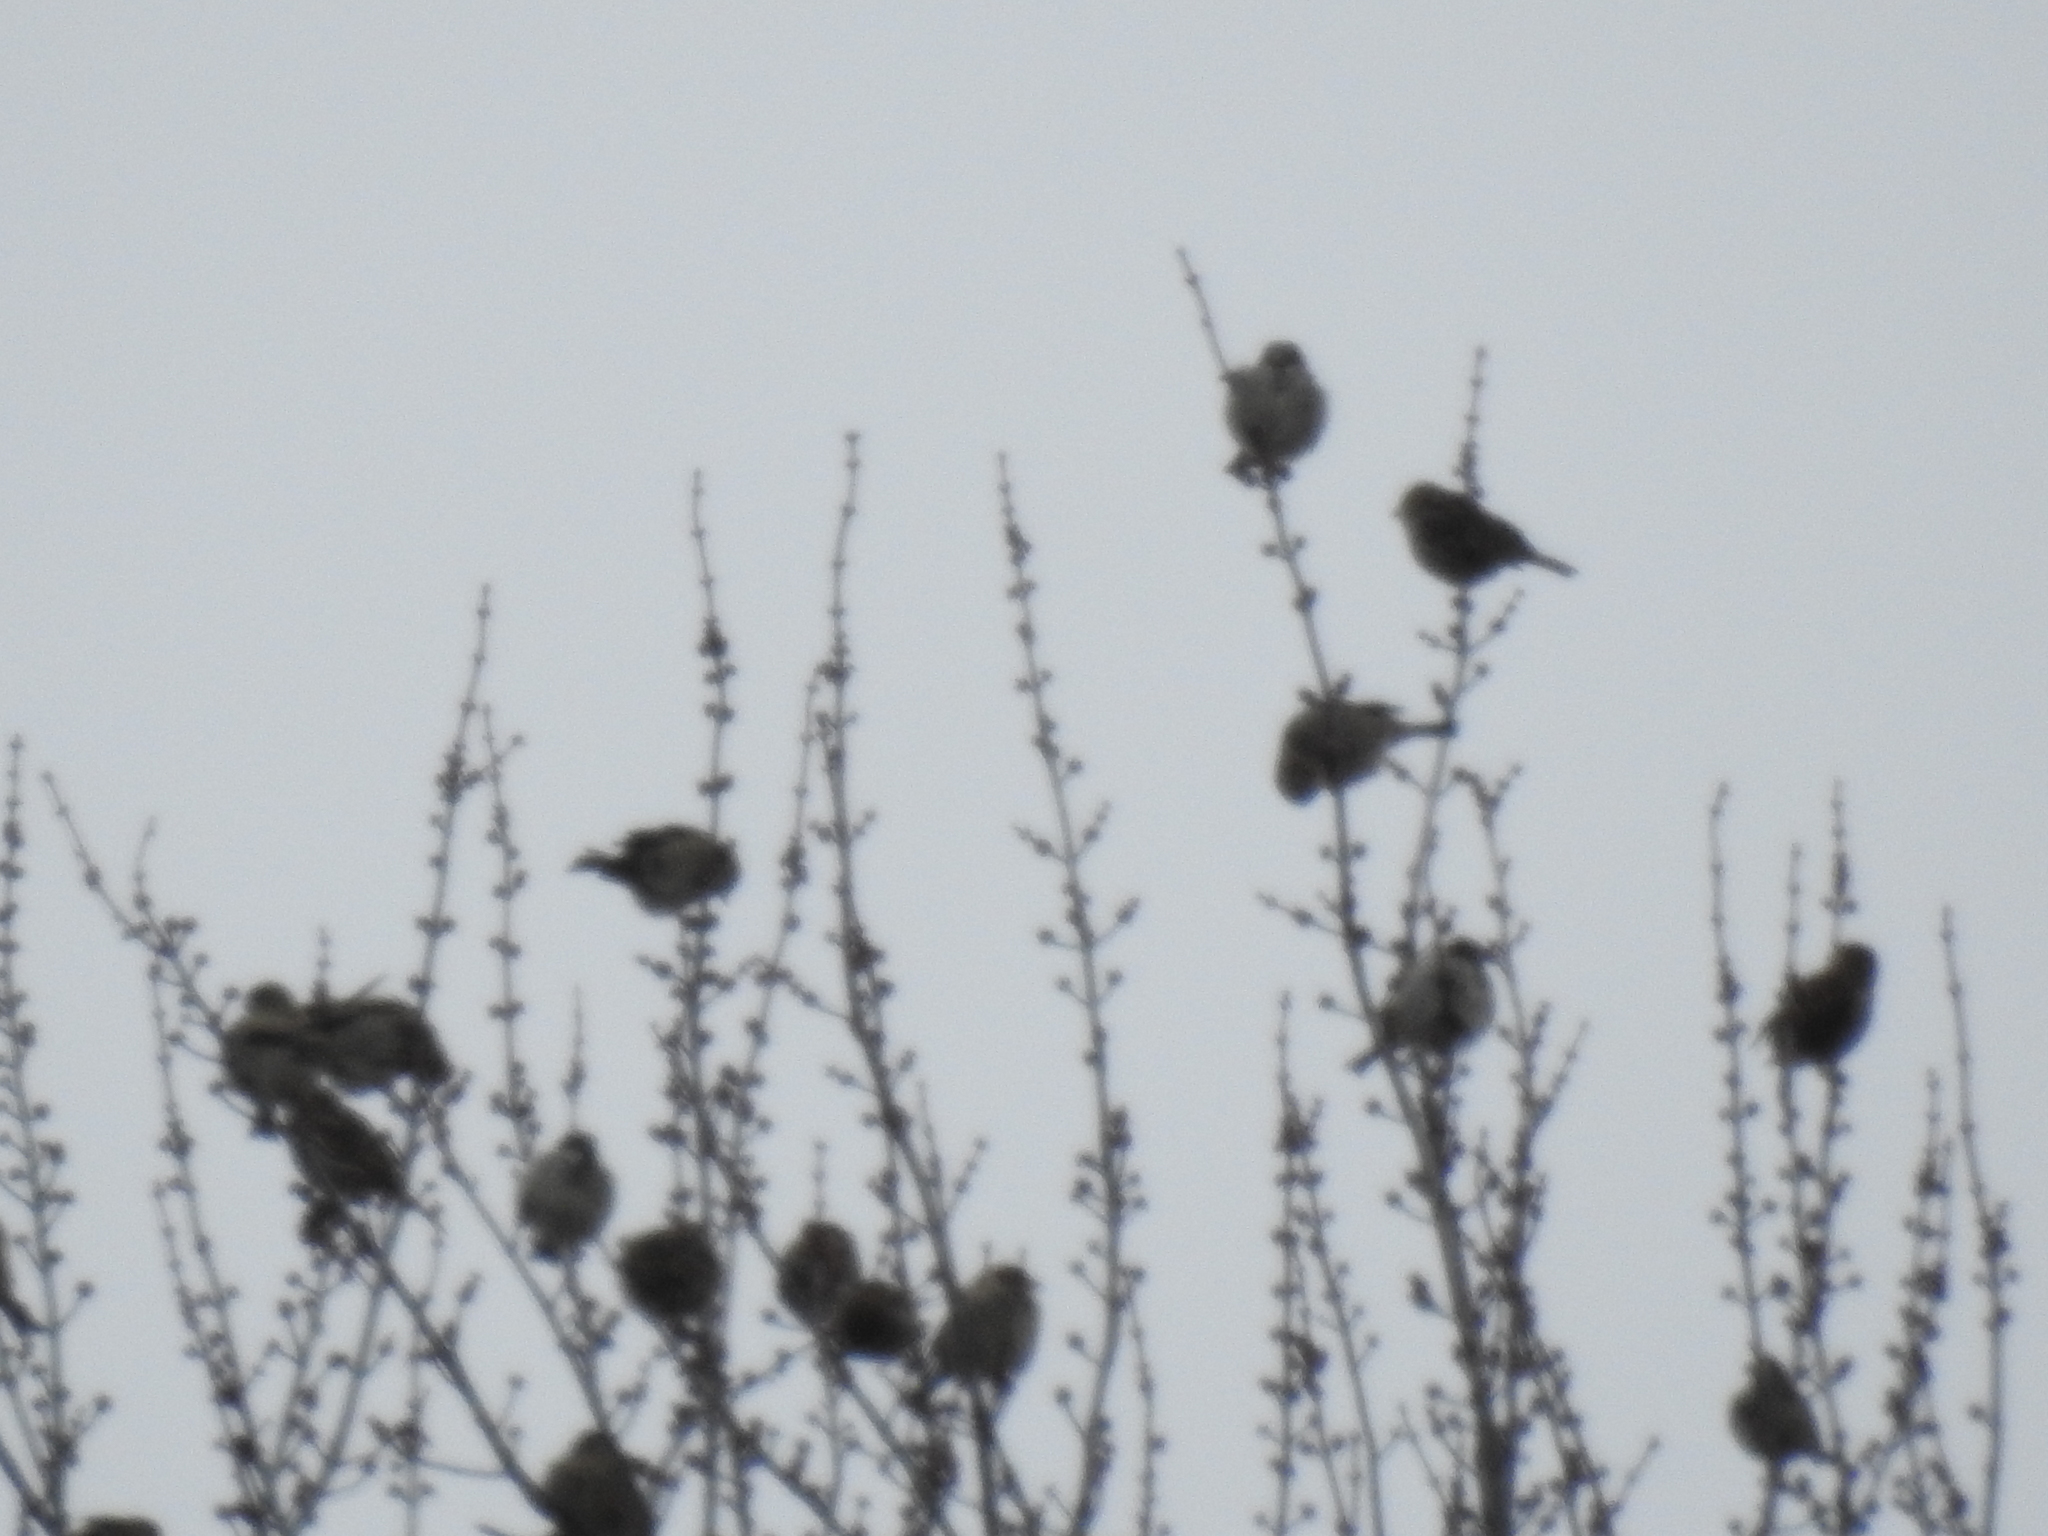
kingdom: Animalia
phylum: Chordata
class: Aves
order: Passeriformes
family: Passeridae
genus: Passer
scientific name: Passer domesticus
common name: House sparrow
